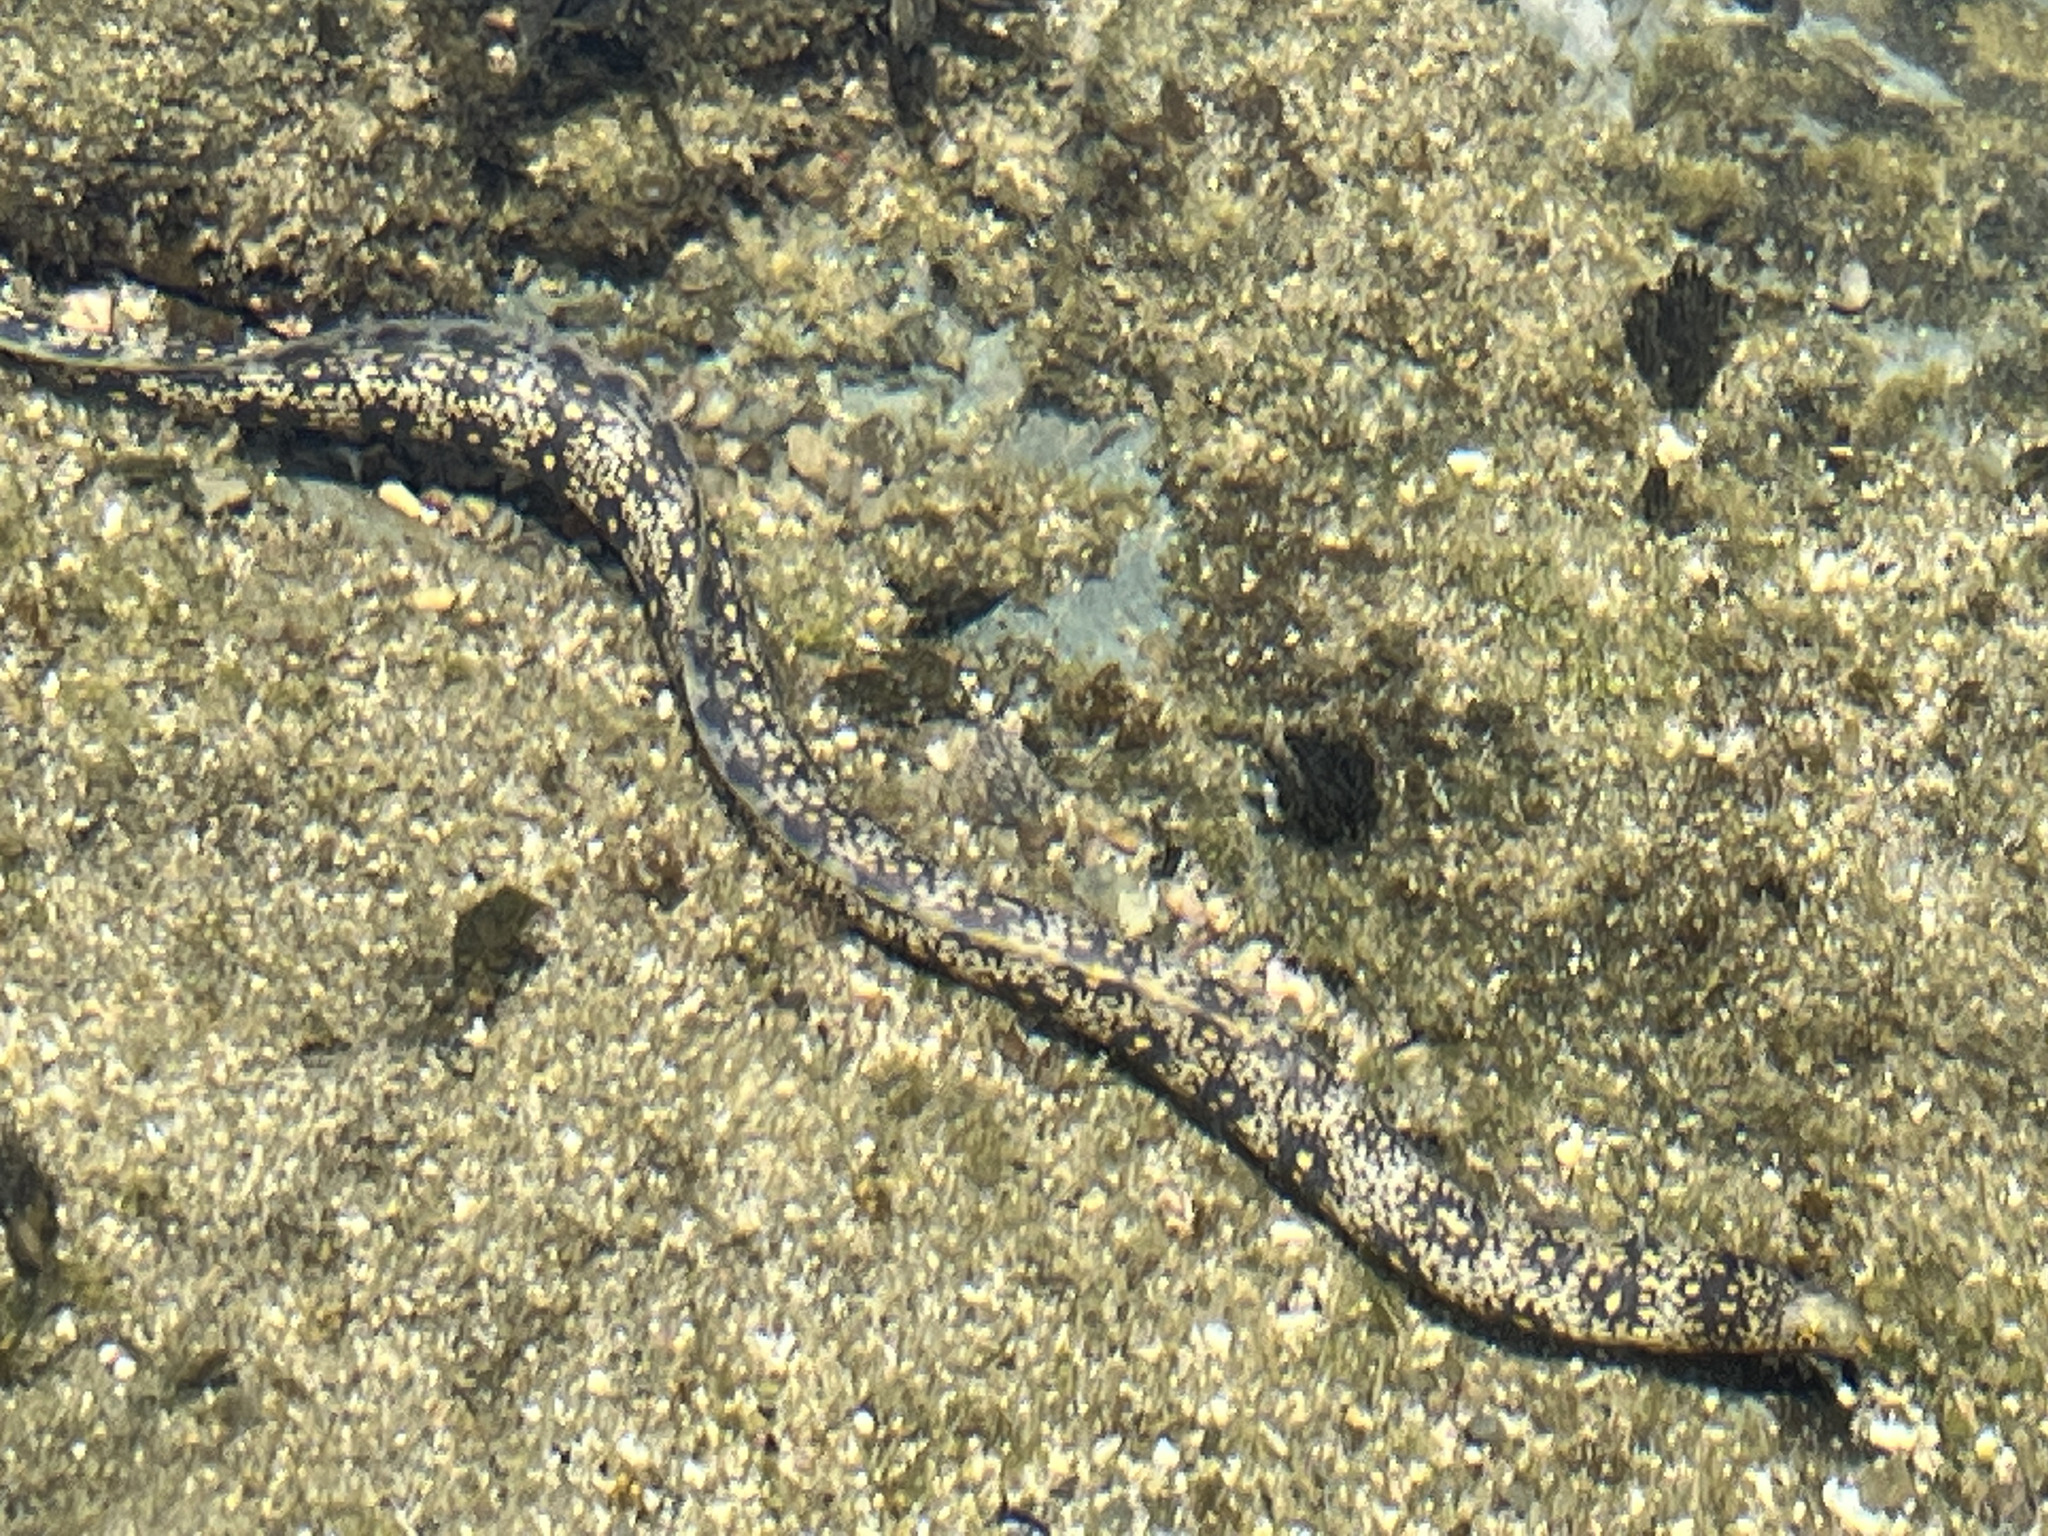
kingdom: Animalia
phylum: Chordata
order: Anguilliformes
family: Muraenidae
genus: Echidna
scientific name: Echidna nebulosa
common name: Snowflake moray
